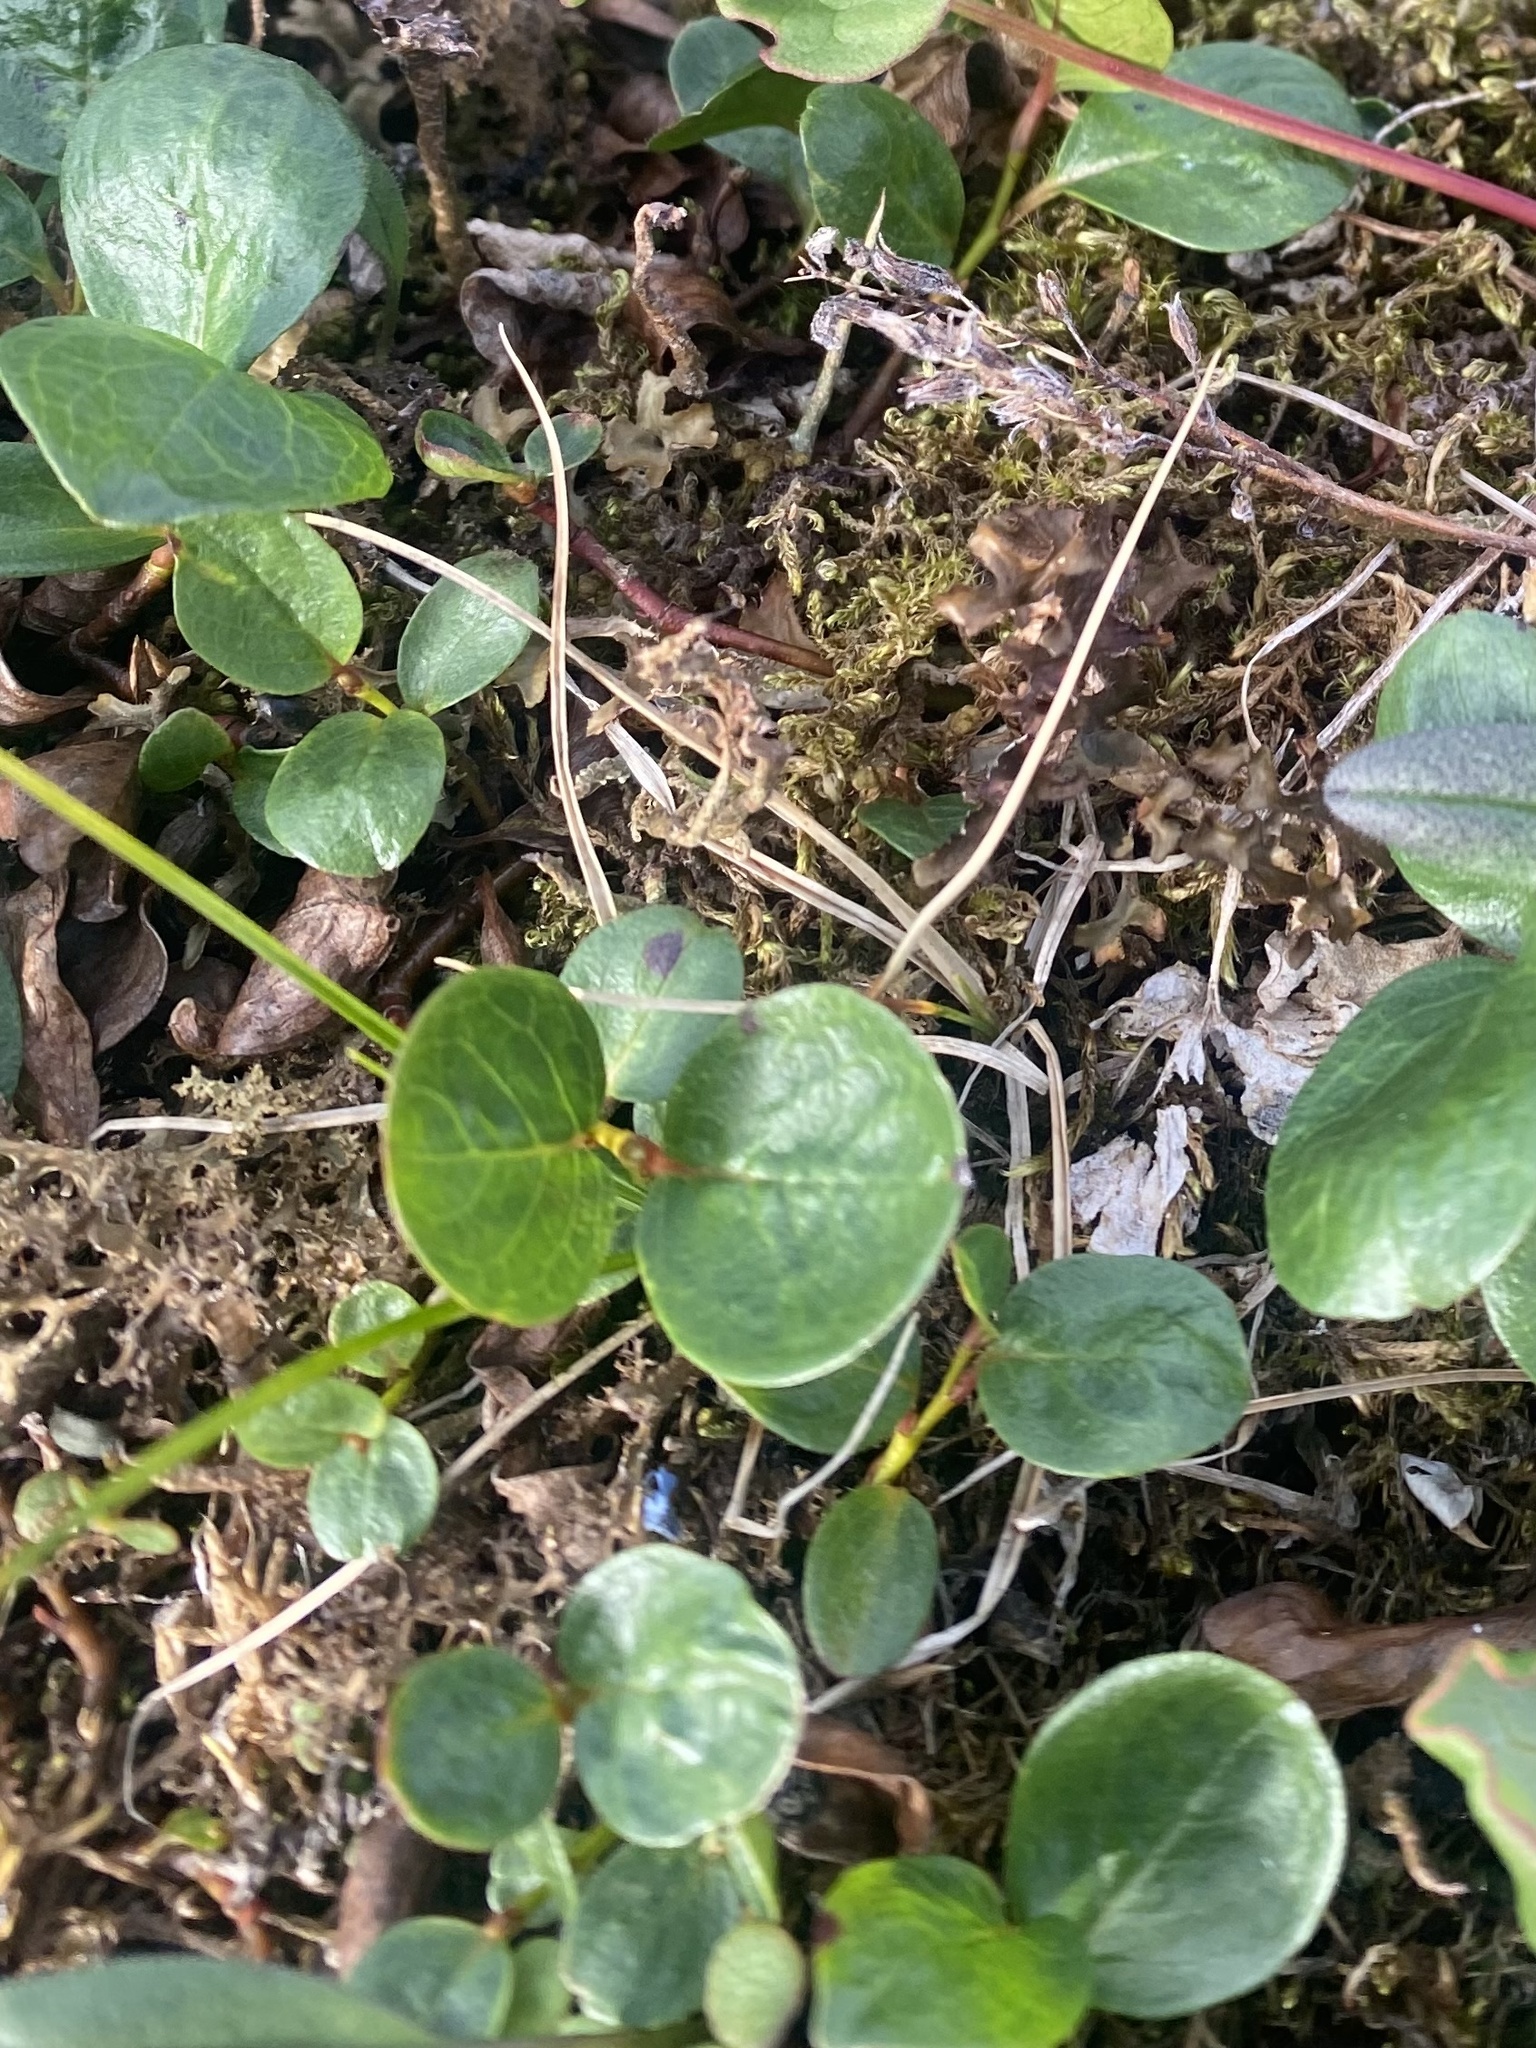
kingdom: Plantae
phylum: Tracheophyta
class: Magnoliopsida
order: Malpighiales
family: Salicaceae
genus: Salix
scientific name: Salix polaris
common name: Polar willow
